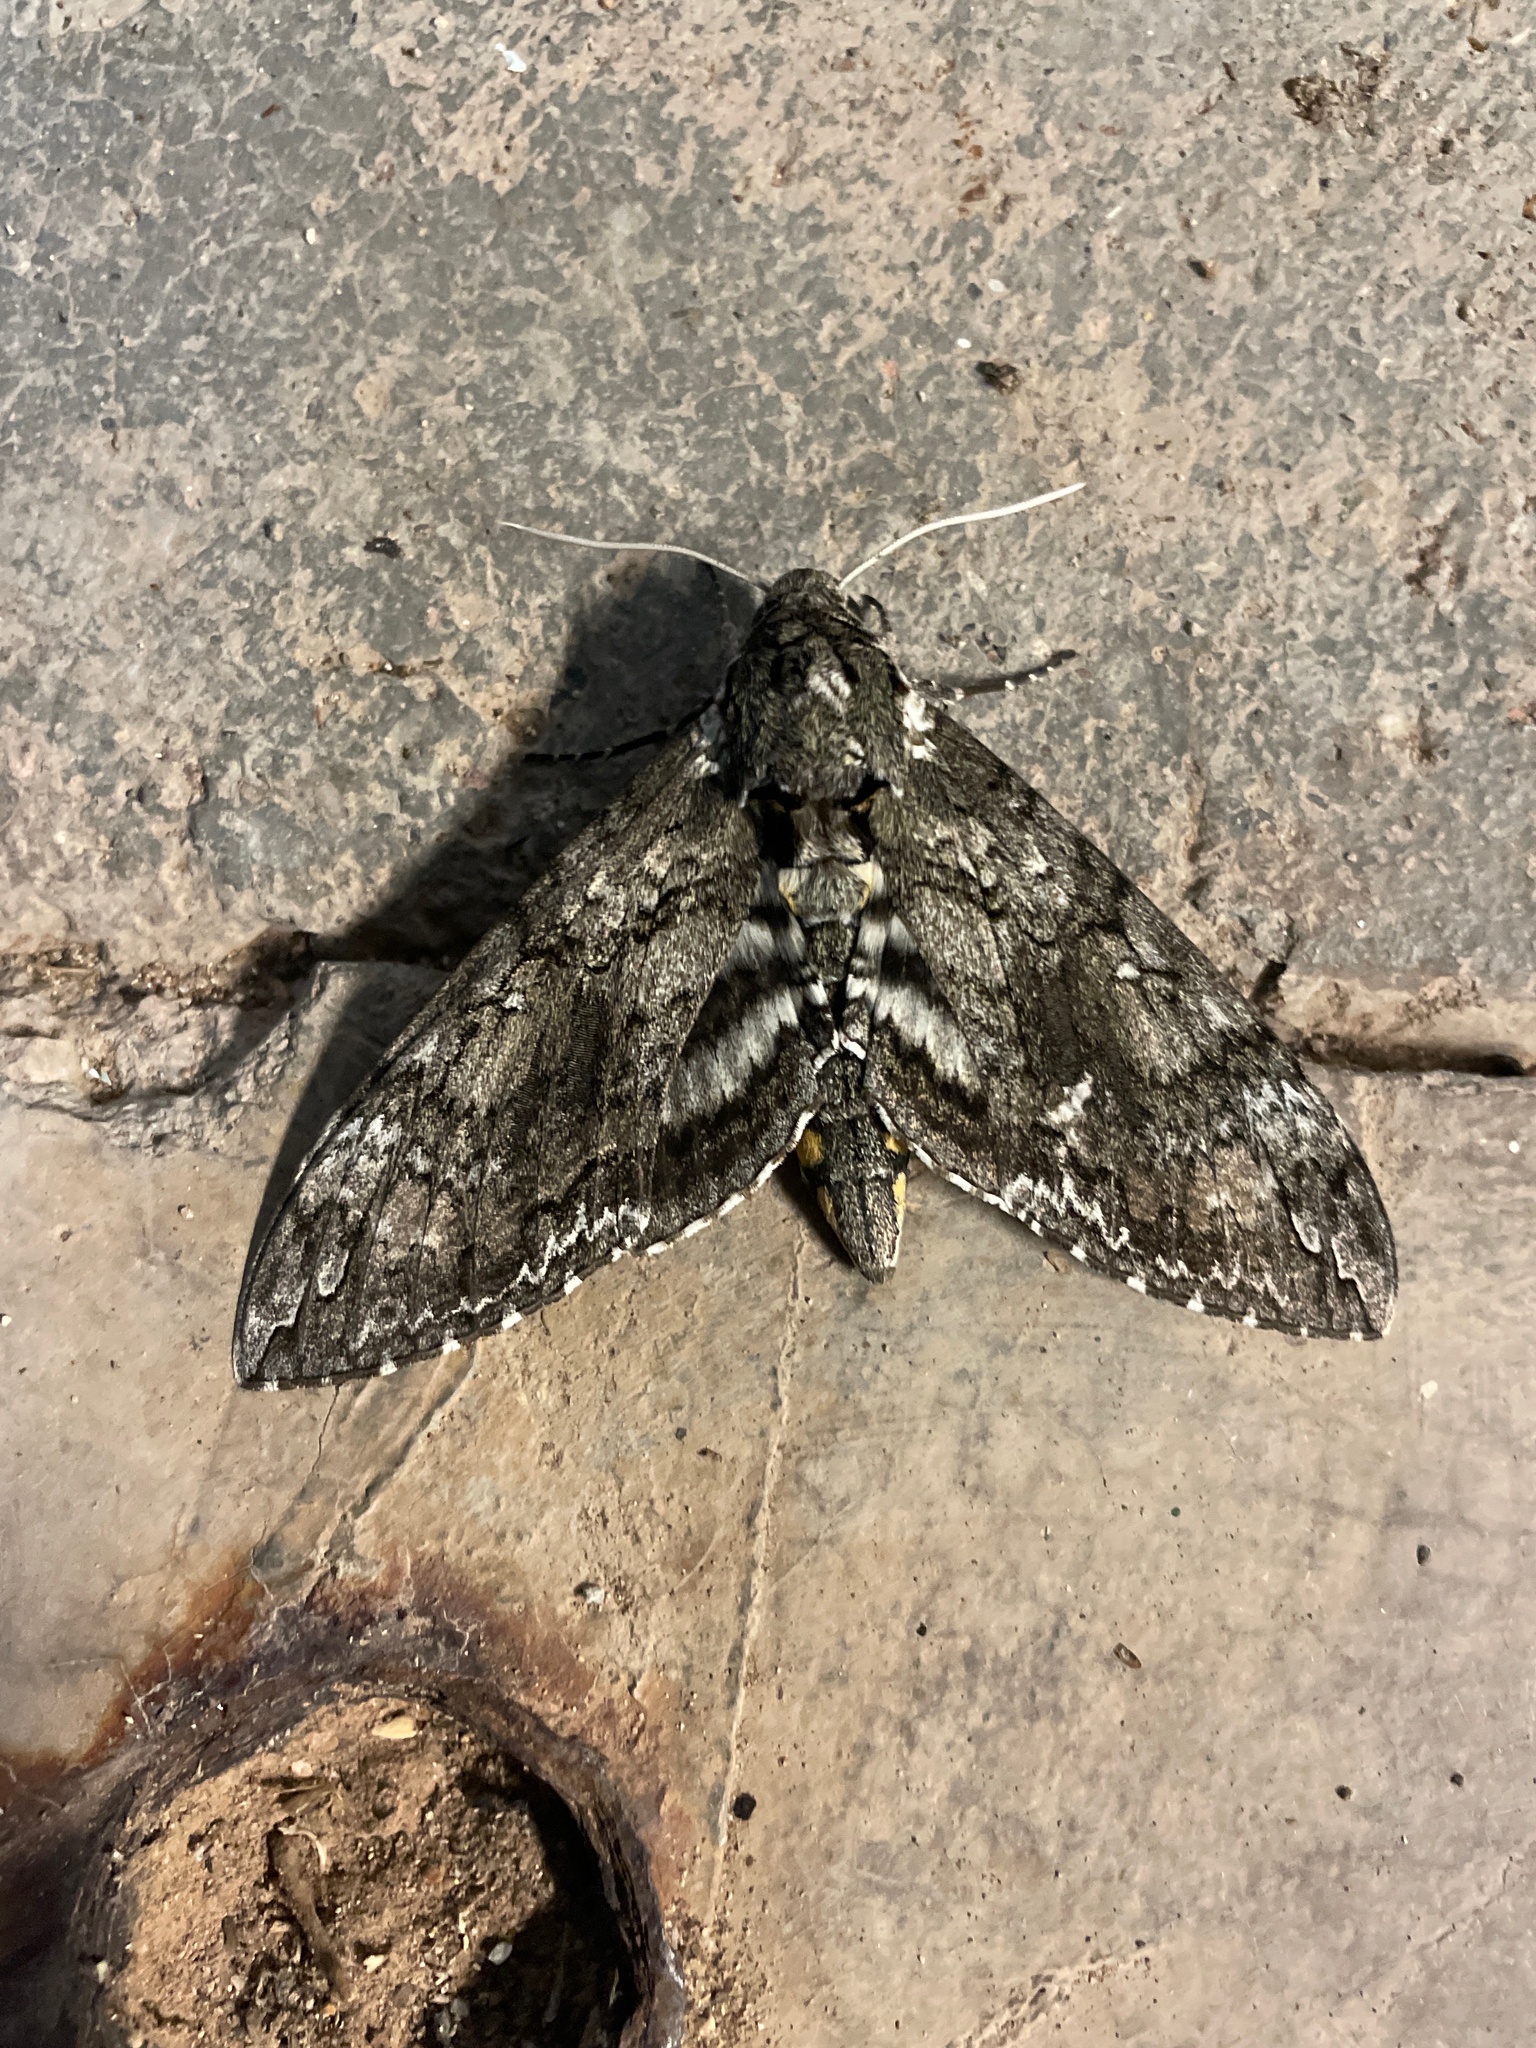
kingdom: Animalia
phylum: Arthropoda
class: Insecta
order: Lepidoptera
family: Sphingidae
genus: Manduca
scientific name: Manduca sexta
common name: Carolina sphinx
